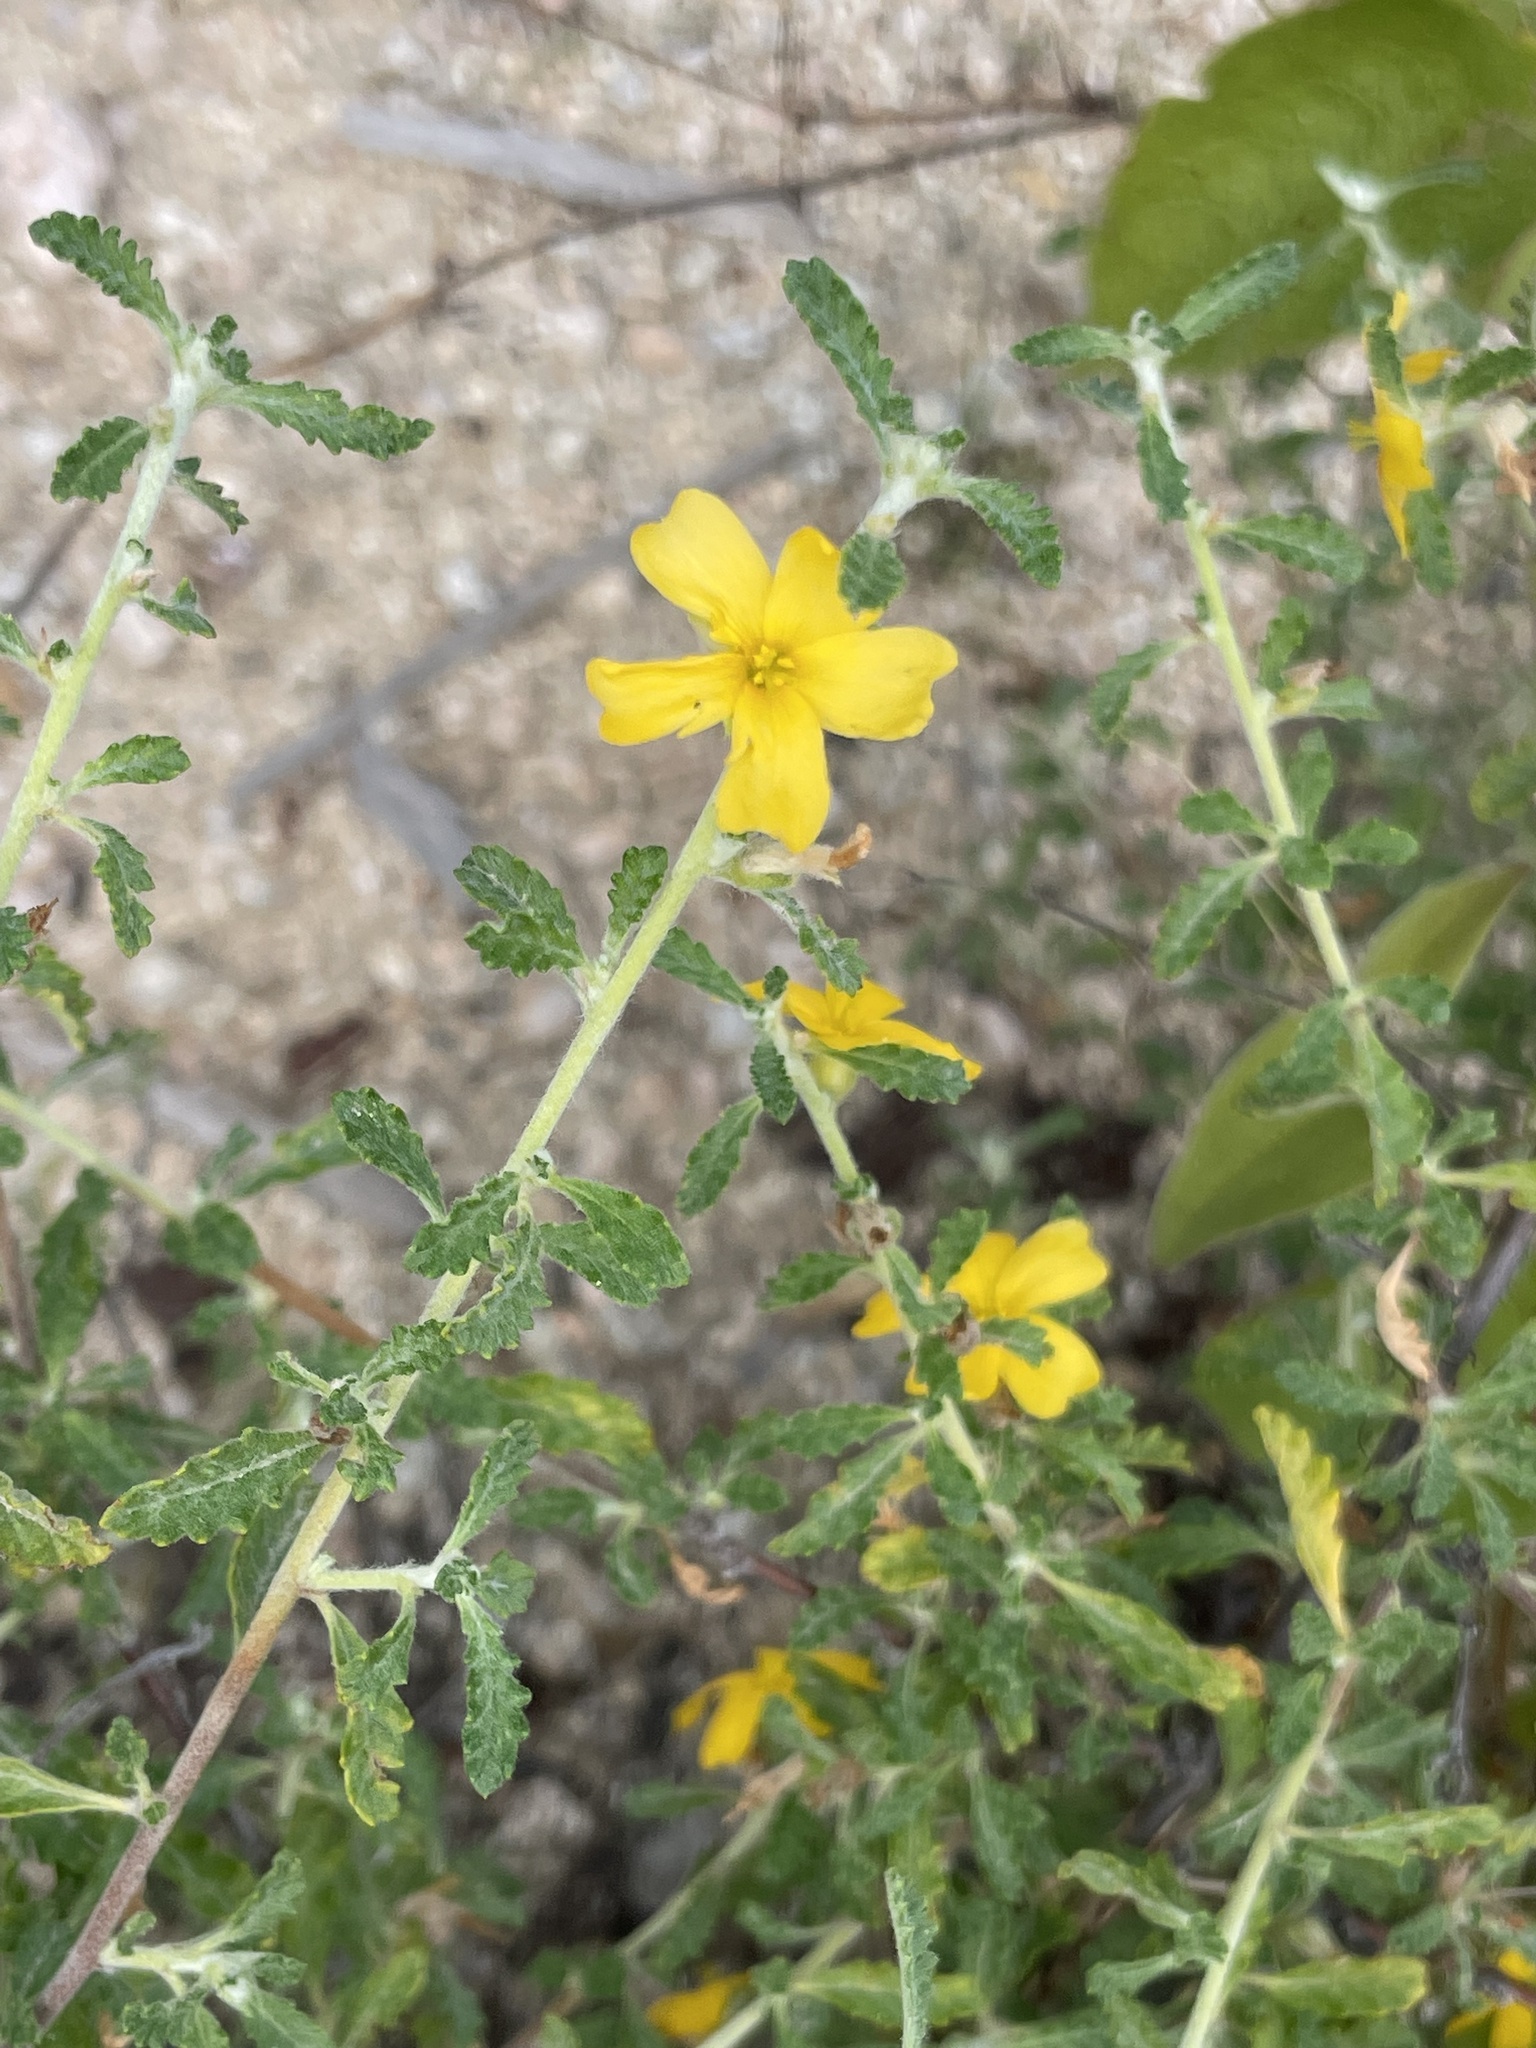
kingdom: Plantae
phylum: Tracheophyta
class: Magnoliopsida
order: Malpighiales
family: Turneraceae
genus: Turnera
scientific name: Turnera diffusa
